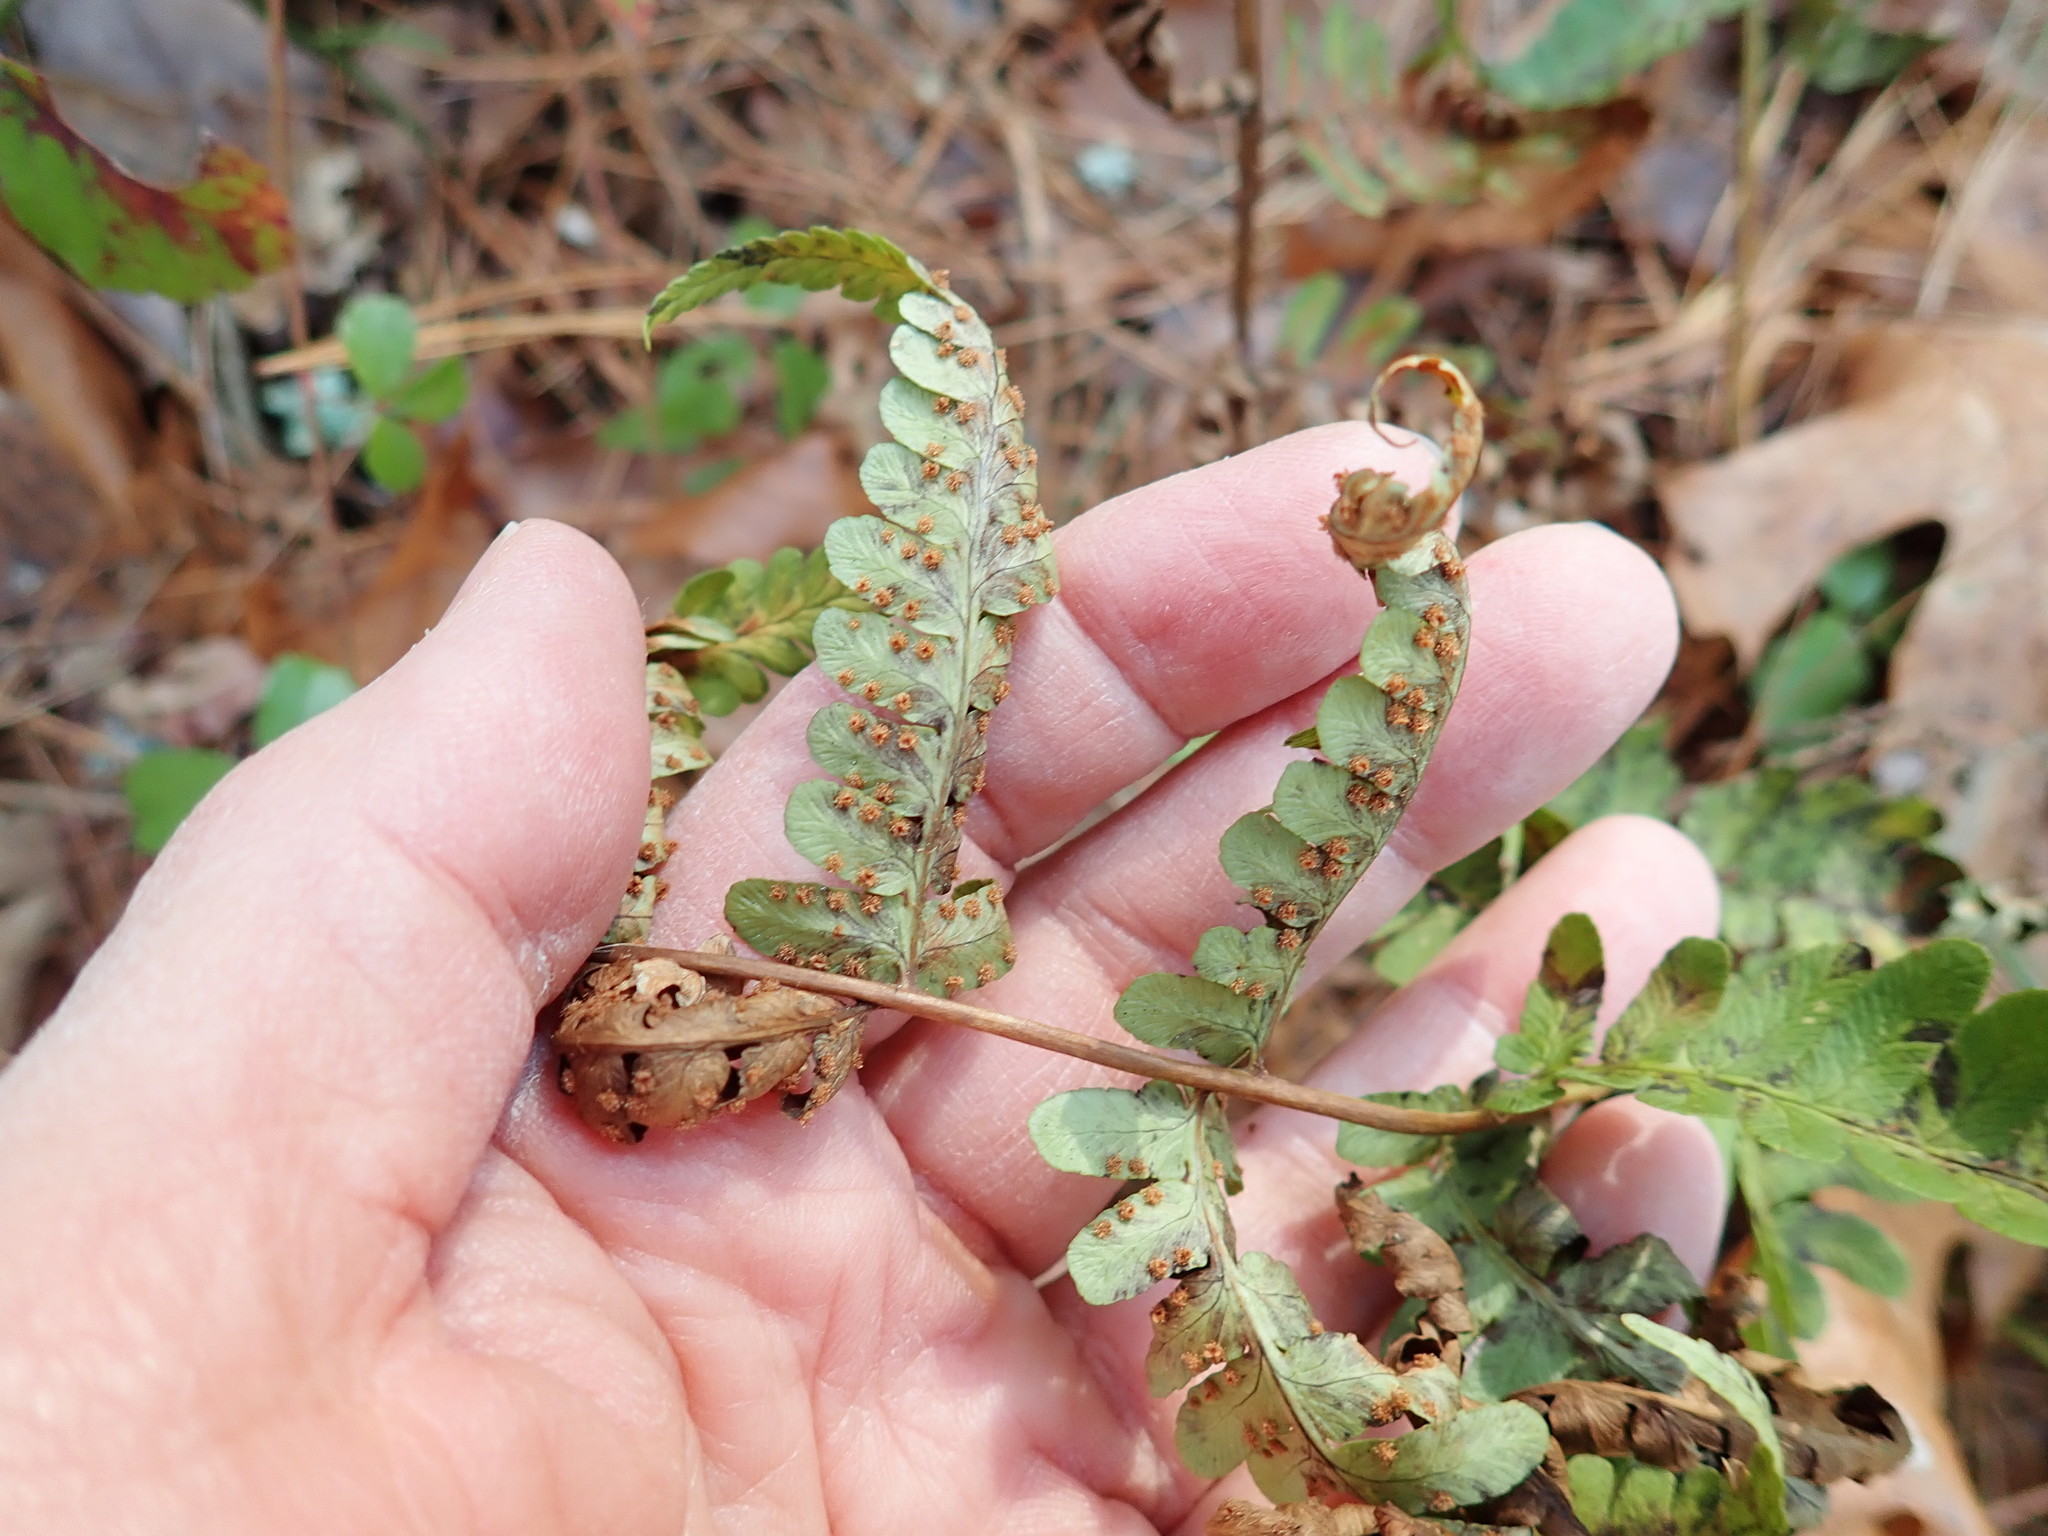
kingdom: Plantae
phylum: Tracheophyta
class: Polypodiopsida
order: Polypodiales
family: Dryopteridaceae
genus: Dryopteris
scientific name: Dryopteris marginalis
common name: Marginal wood fern
